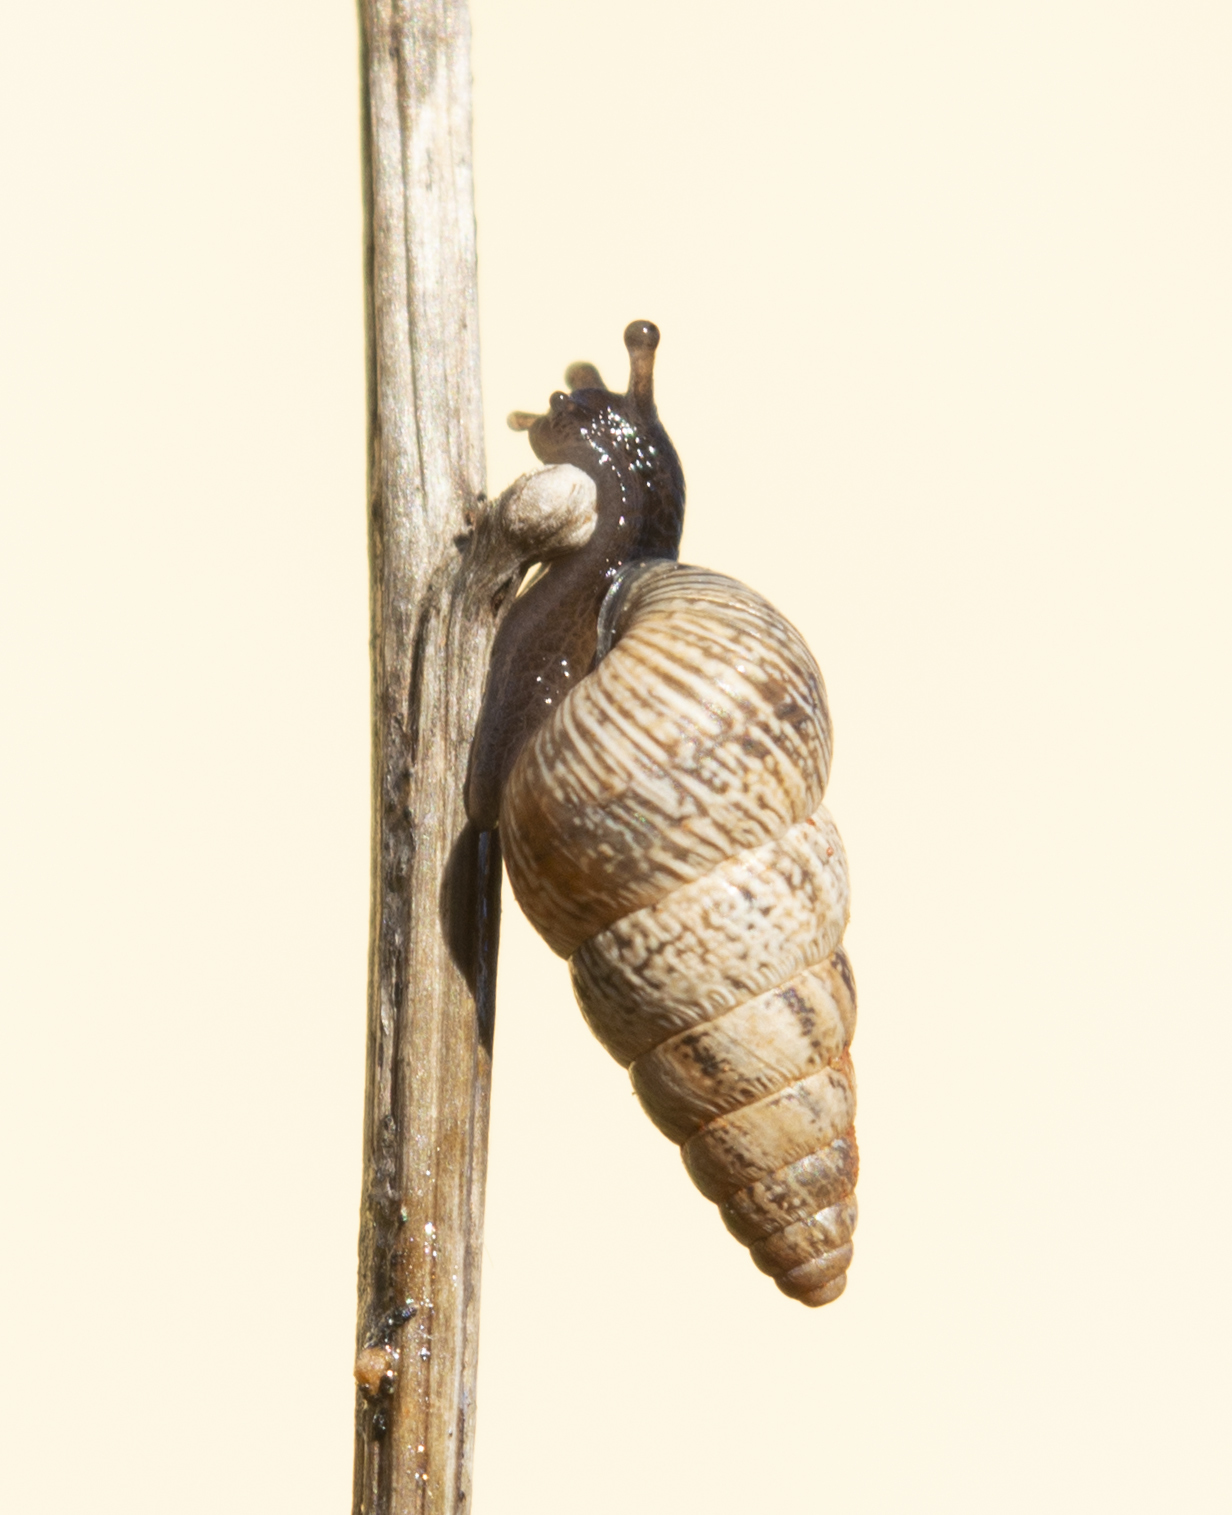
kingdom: Animalia
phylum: Mollusca
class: Gastropoda
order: Stylommatophora
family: Geomitridae
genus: Cochlicella
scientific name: Cochlicella acuta
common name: Pointed snail
